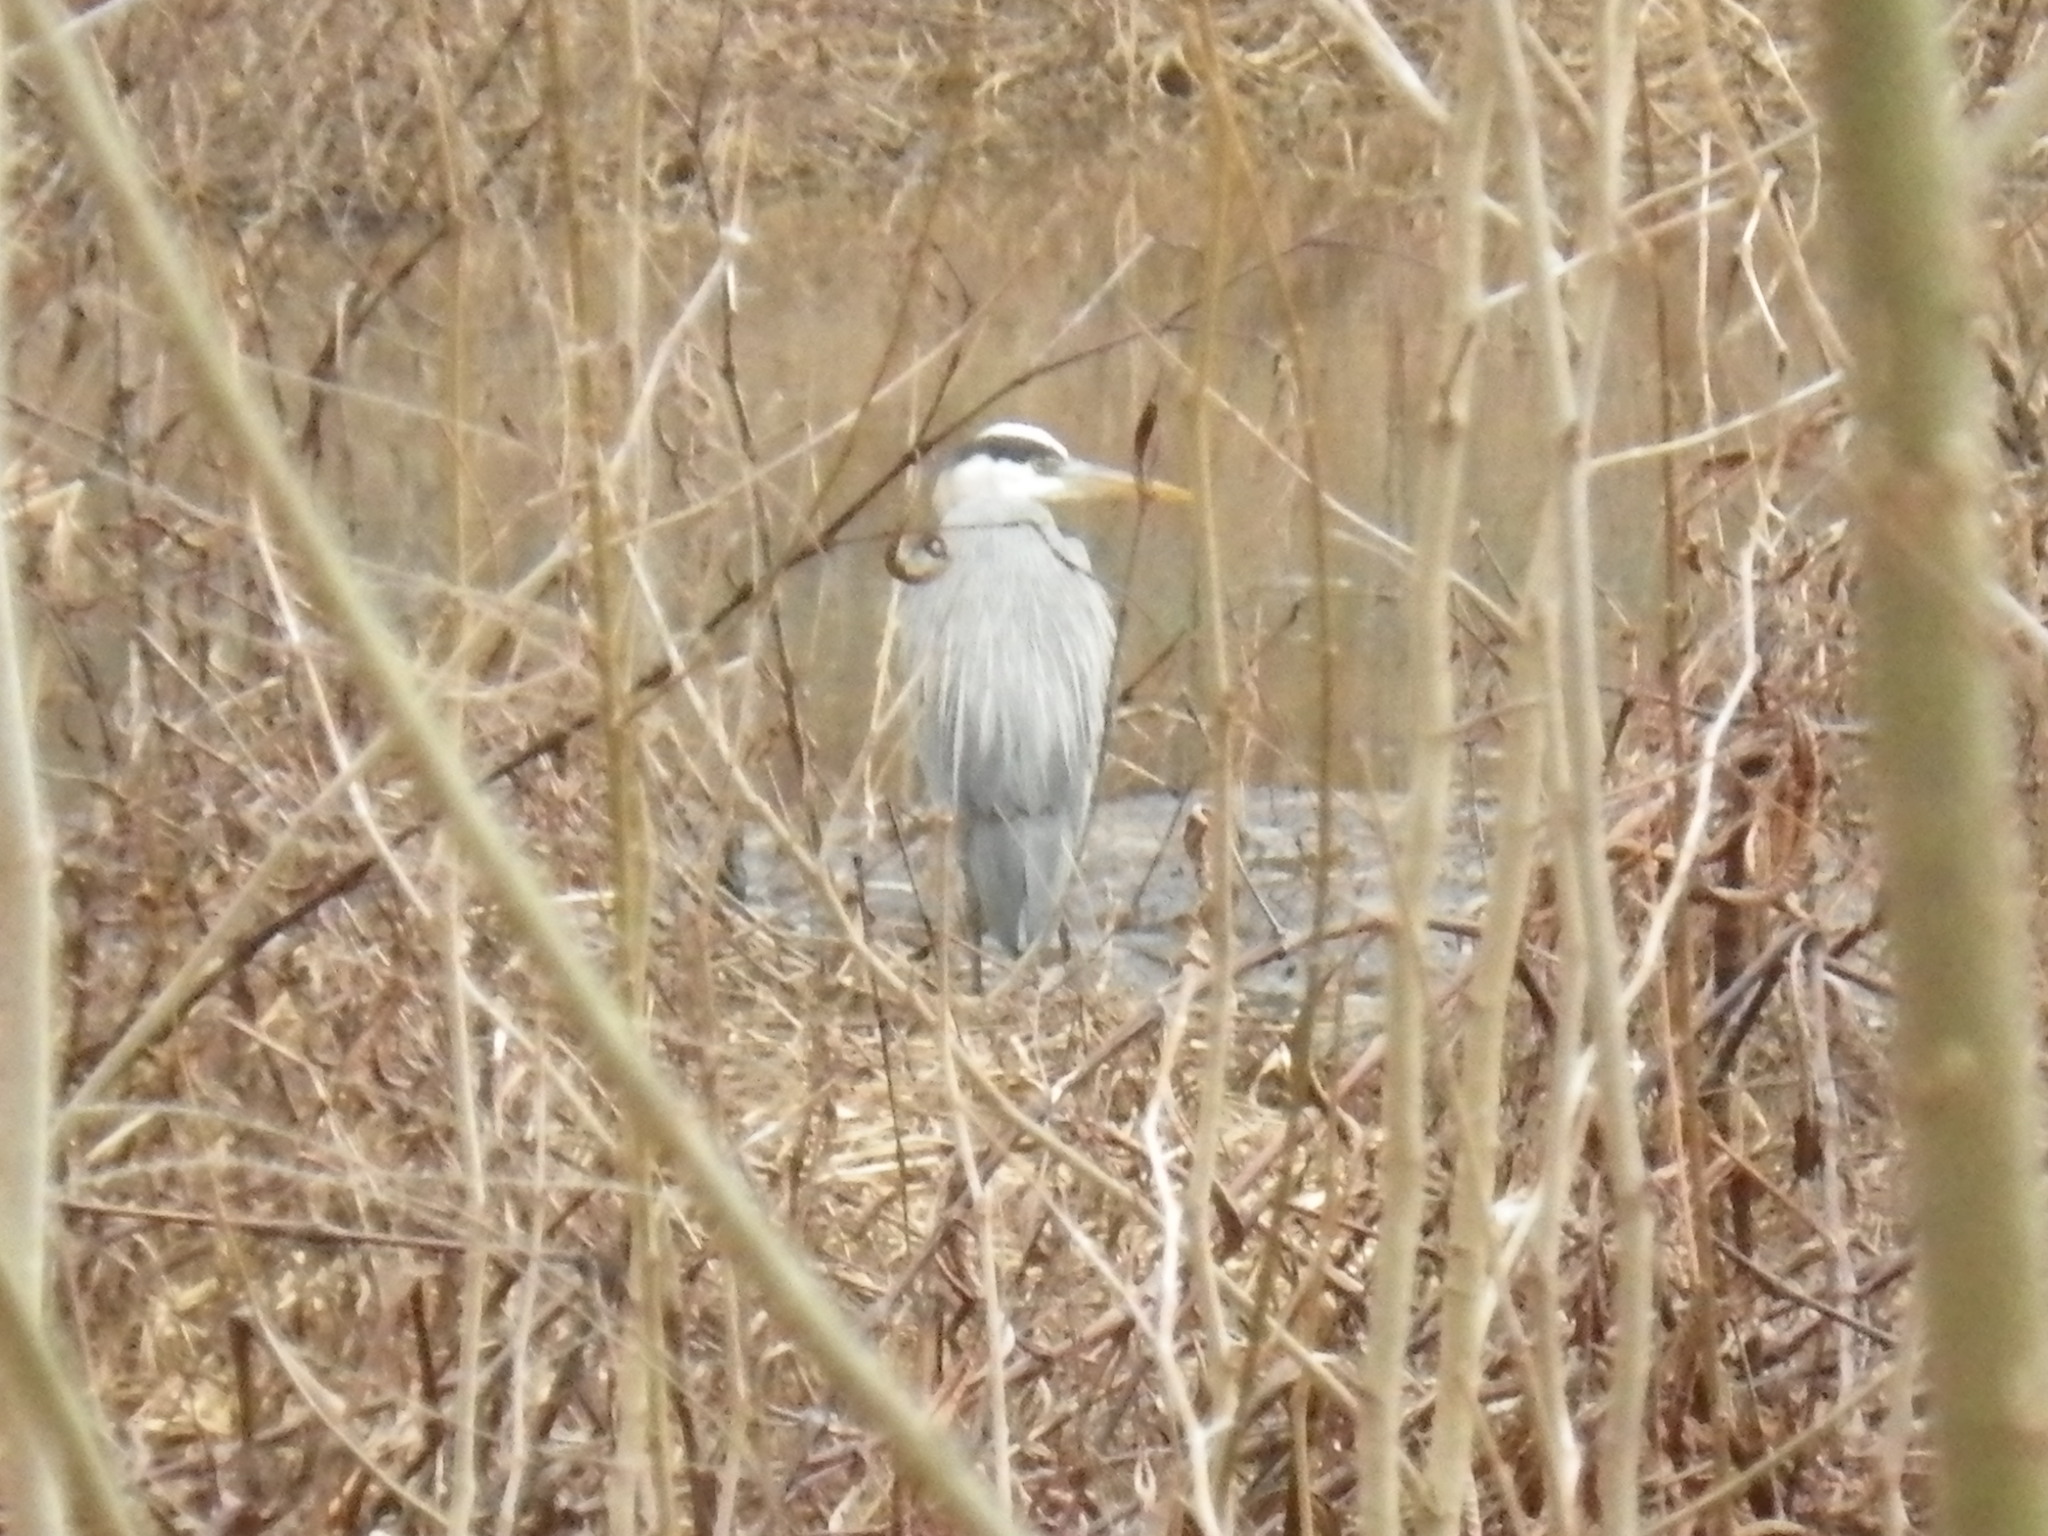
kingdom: Animalia
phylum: Chordata
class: Aves
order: Pelecaniformes
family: Ardeidae
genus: Ardea
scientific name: Ardea herodias
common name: Great blue heron
